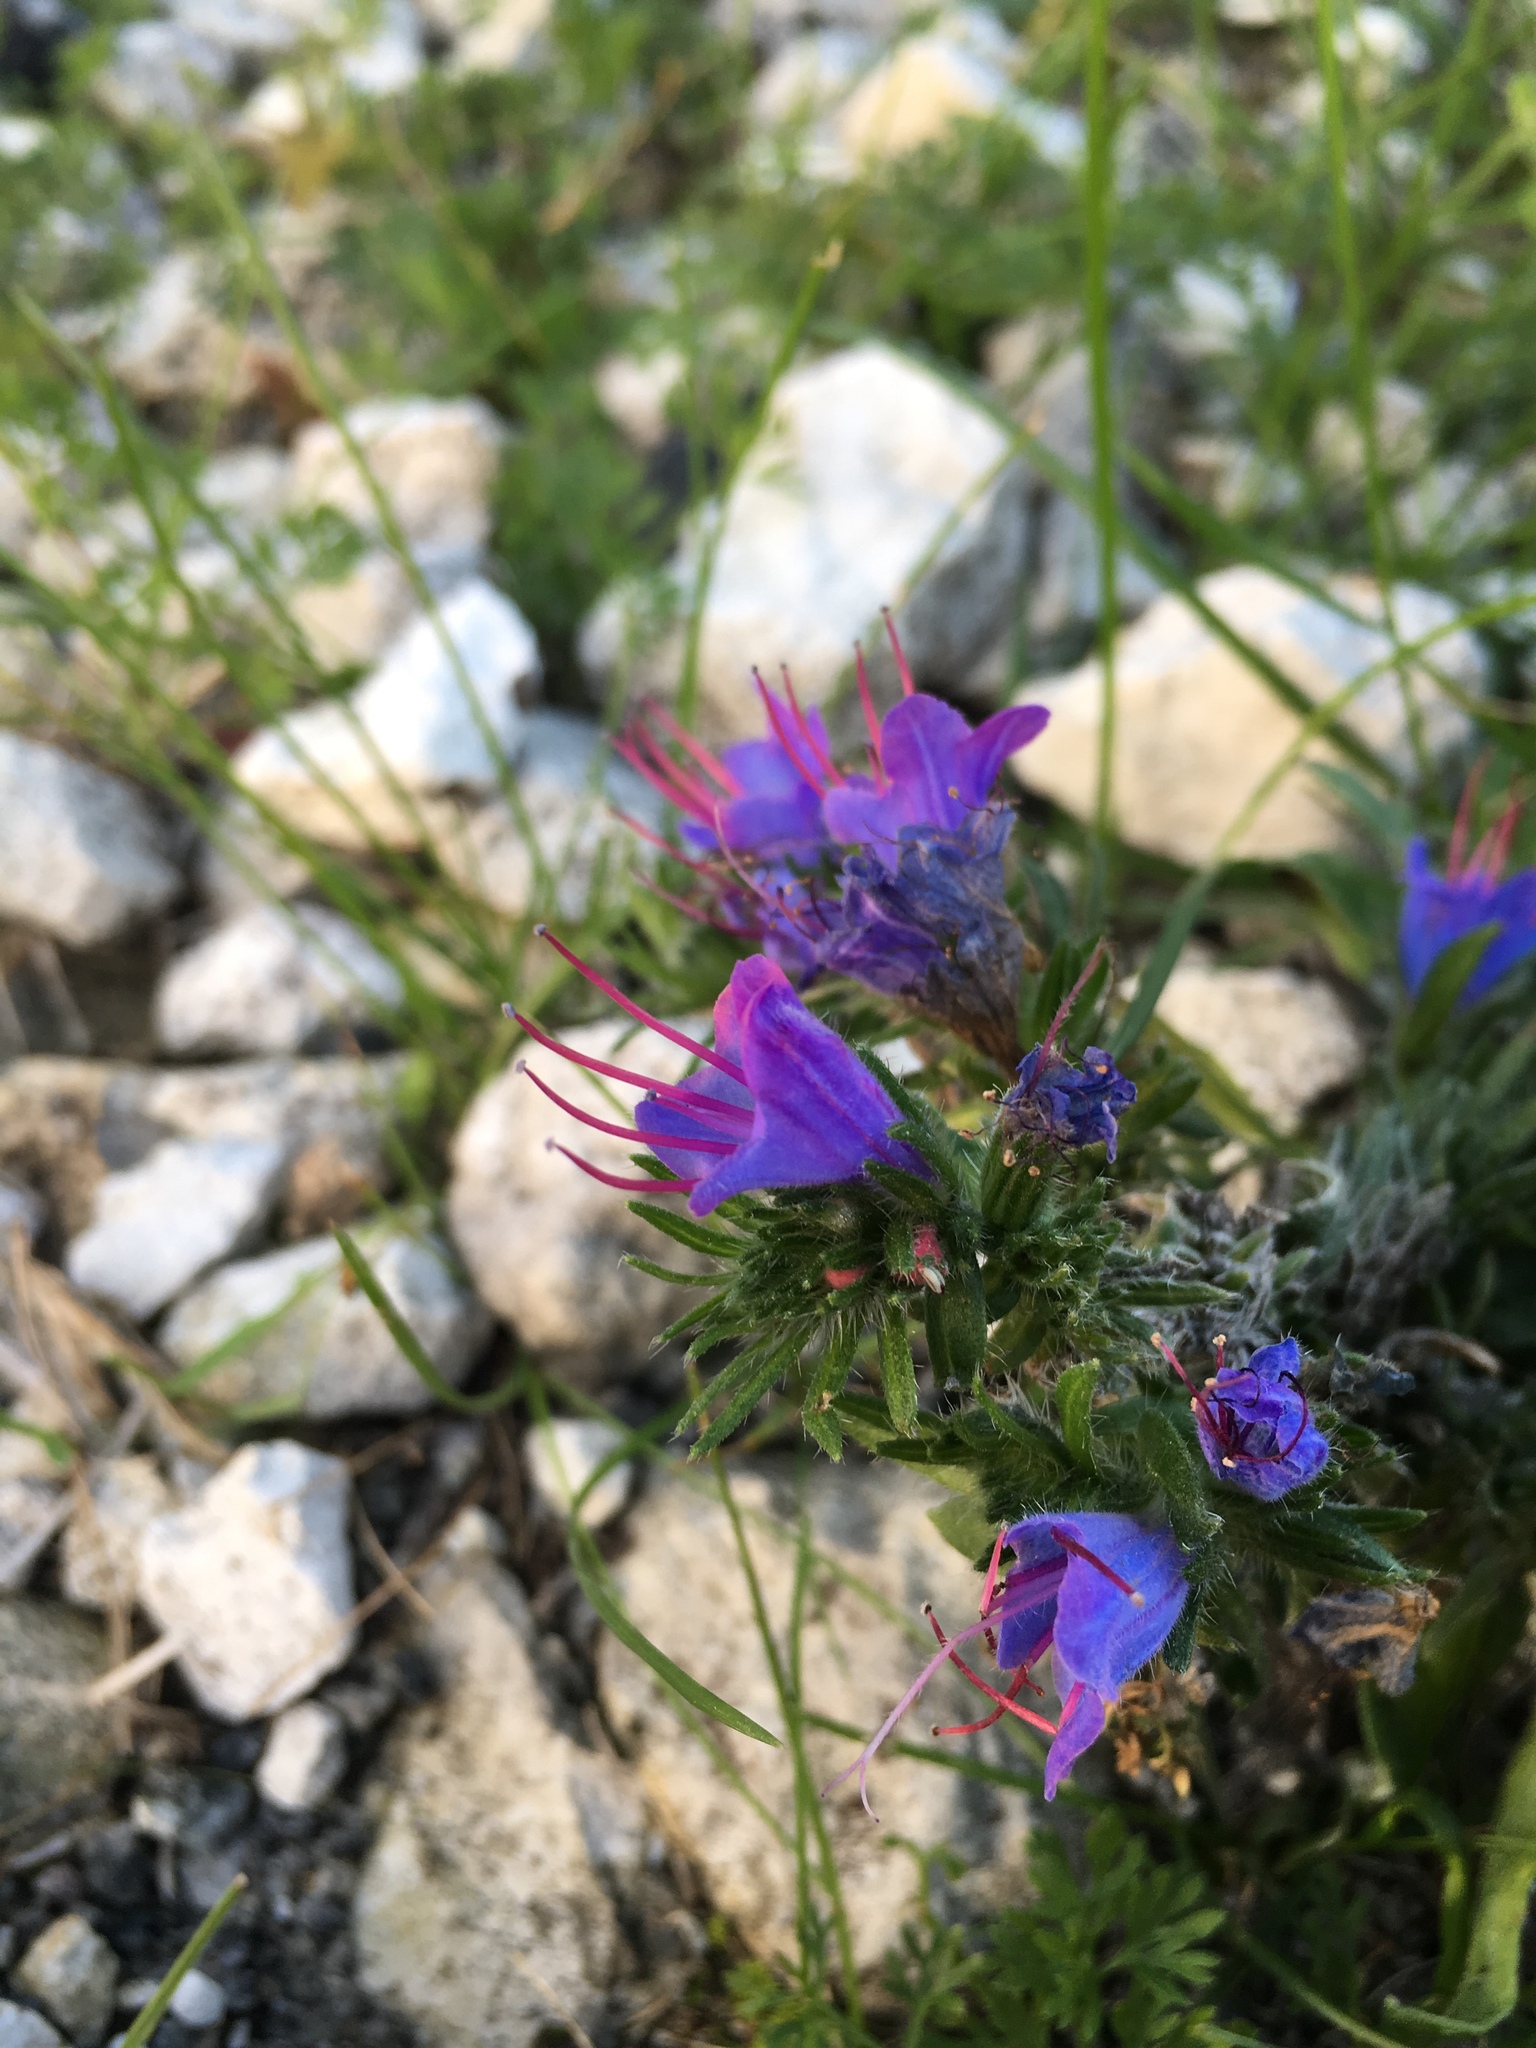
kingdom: Plantae
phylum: Tracheophyta
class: Magnoliopsida
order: Boraginales
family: Boraginaceae
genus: Echium
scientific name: Echium vulgare
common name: Common viper's bugloss
